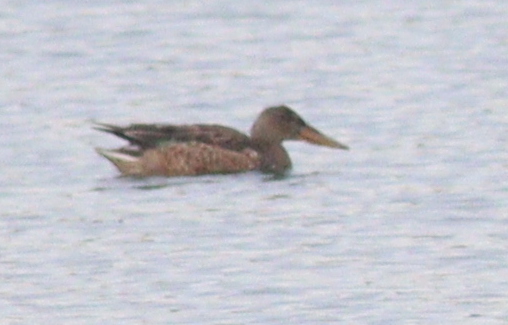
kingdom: Animalia
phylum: Chordata
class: Aves
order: Anseriformes
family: Anatidae
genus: Spatula
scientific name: Spatula clypeata
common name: Northern shoveler
